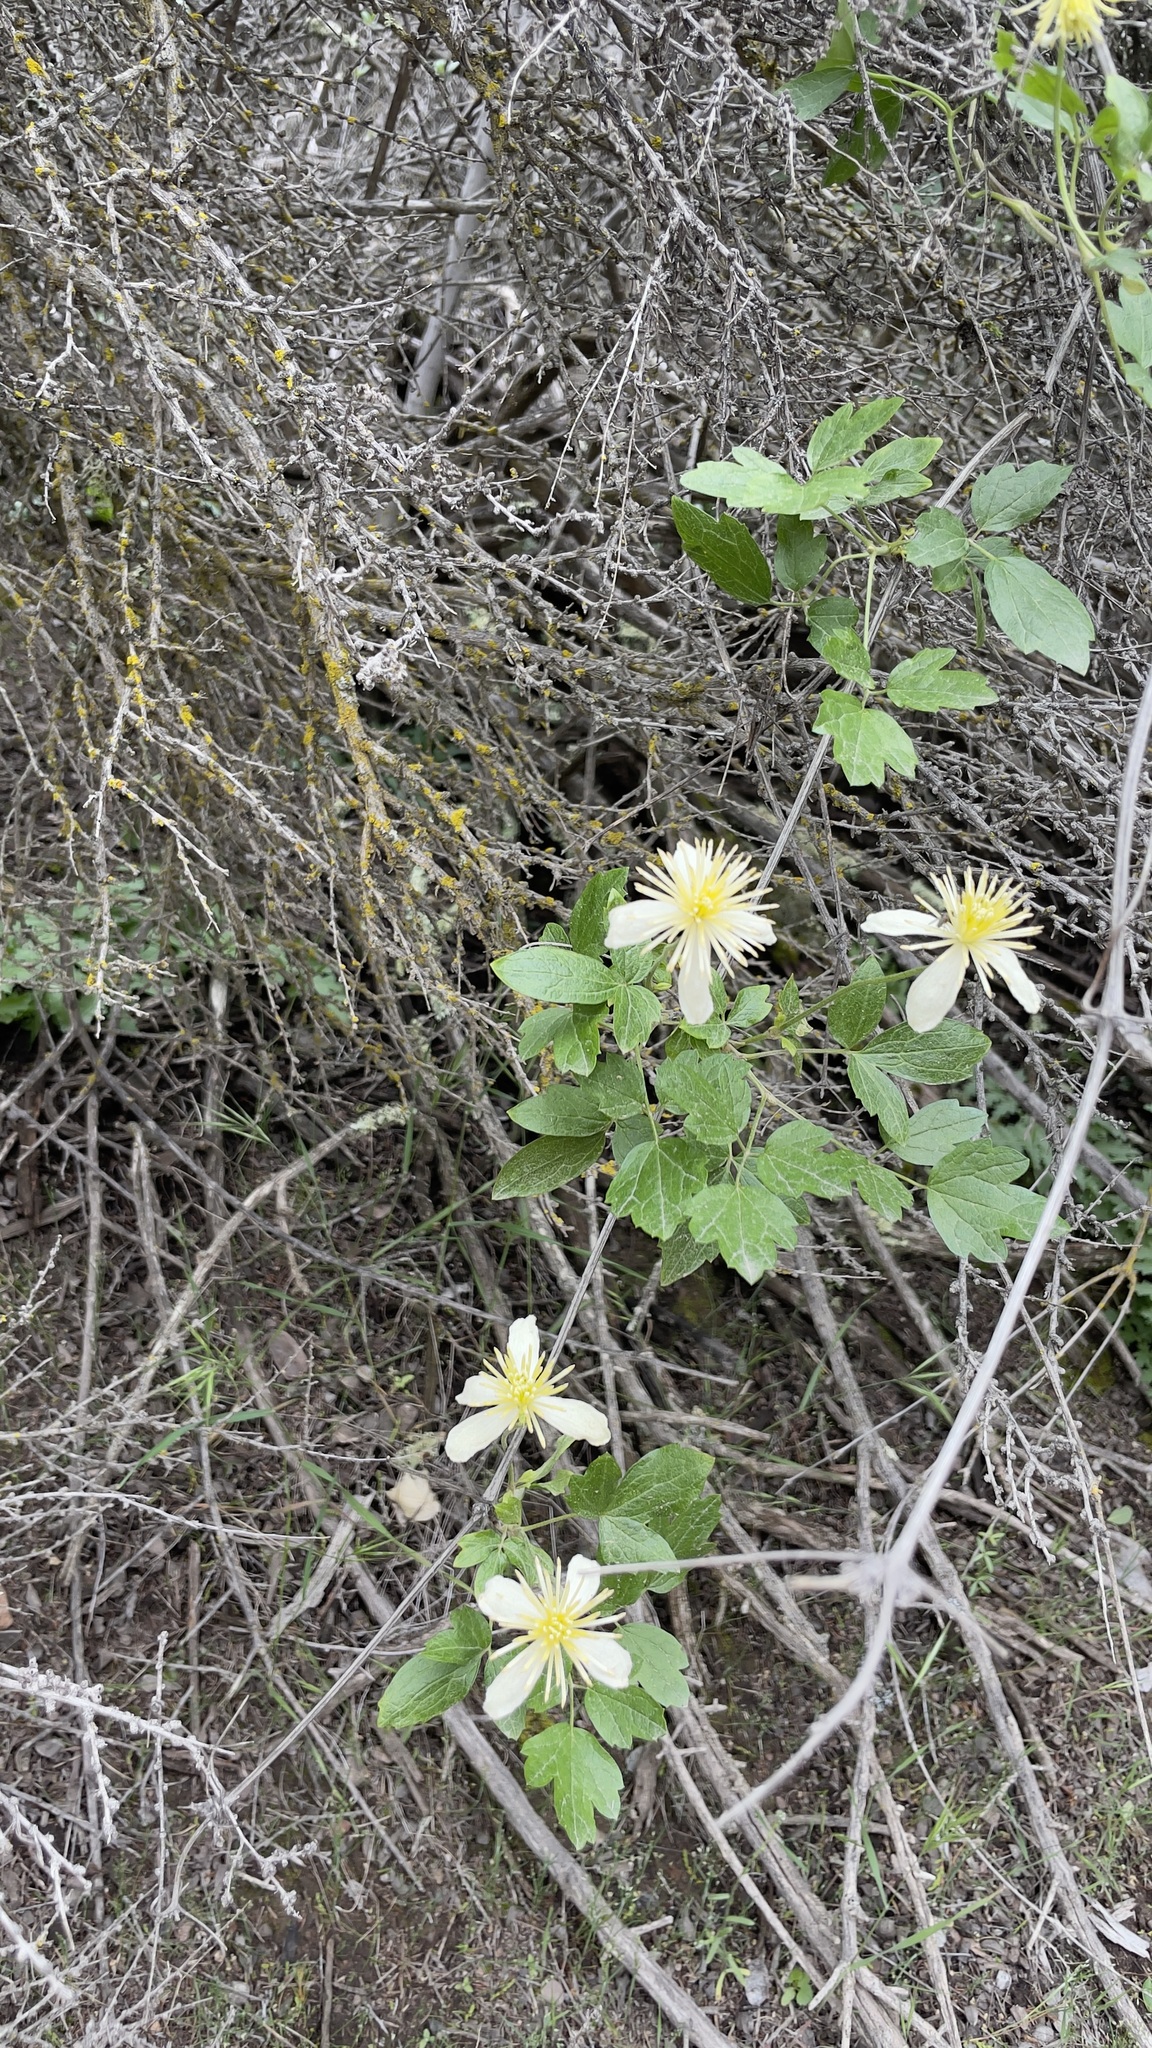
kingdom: Plantae
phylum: Tracheophyta
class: Magnoliopsida
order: Ranunculales
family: Ranunculaceae
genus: Clematis
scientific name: Clematis lasiantha
